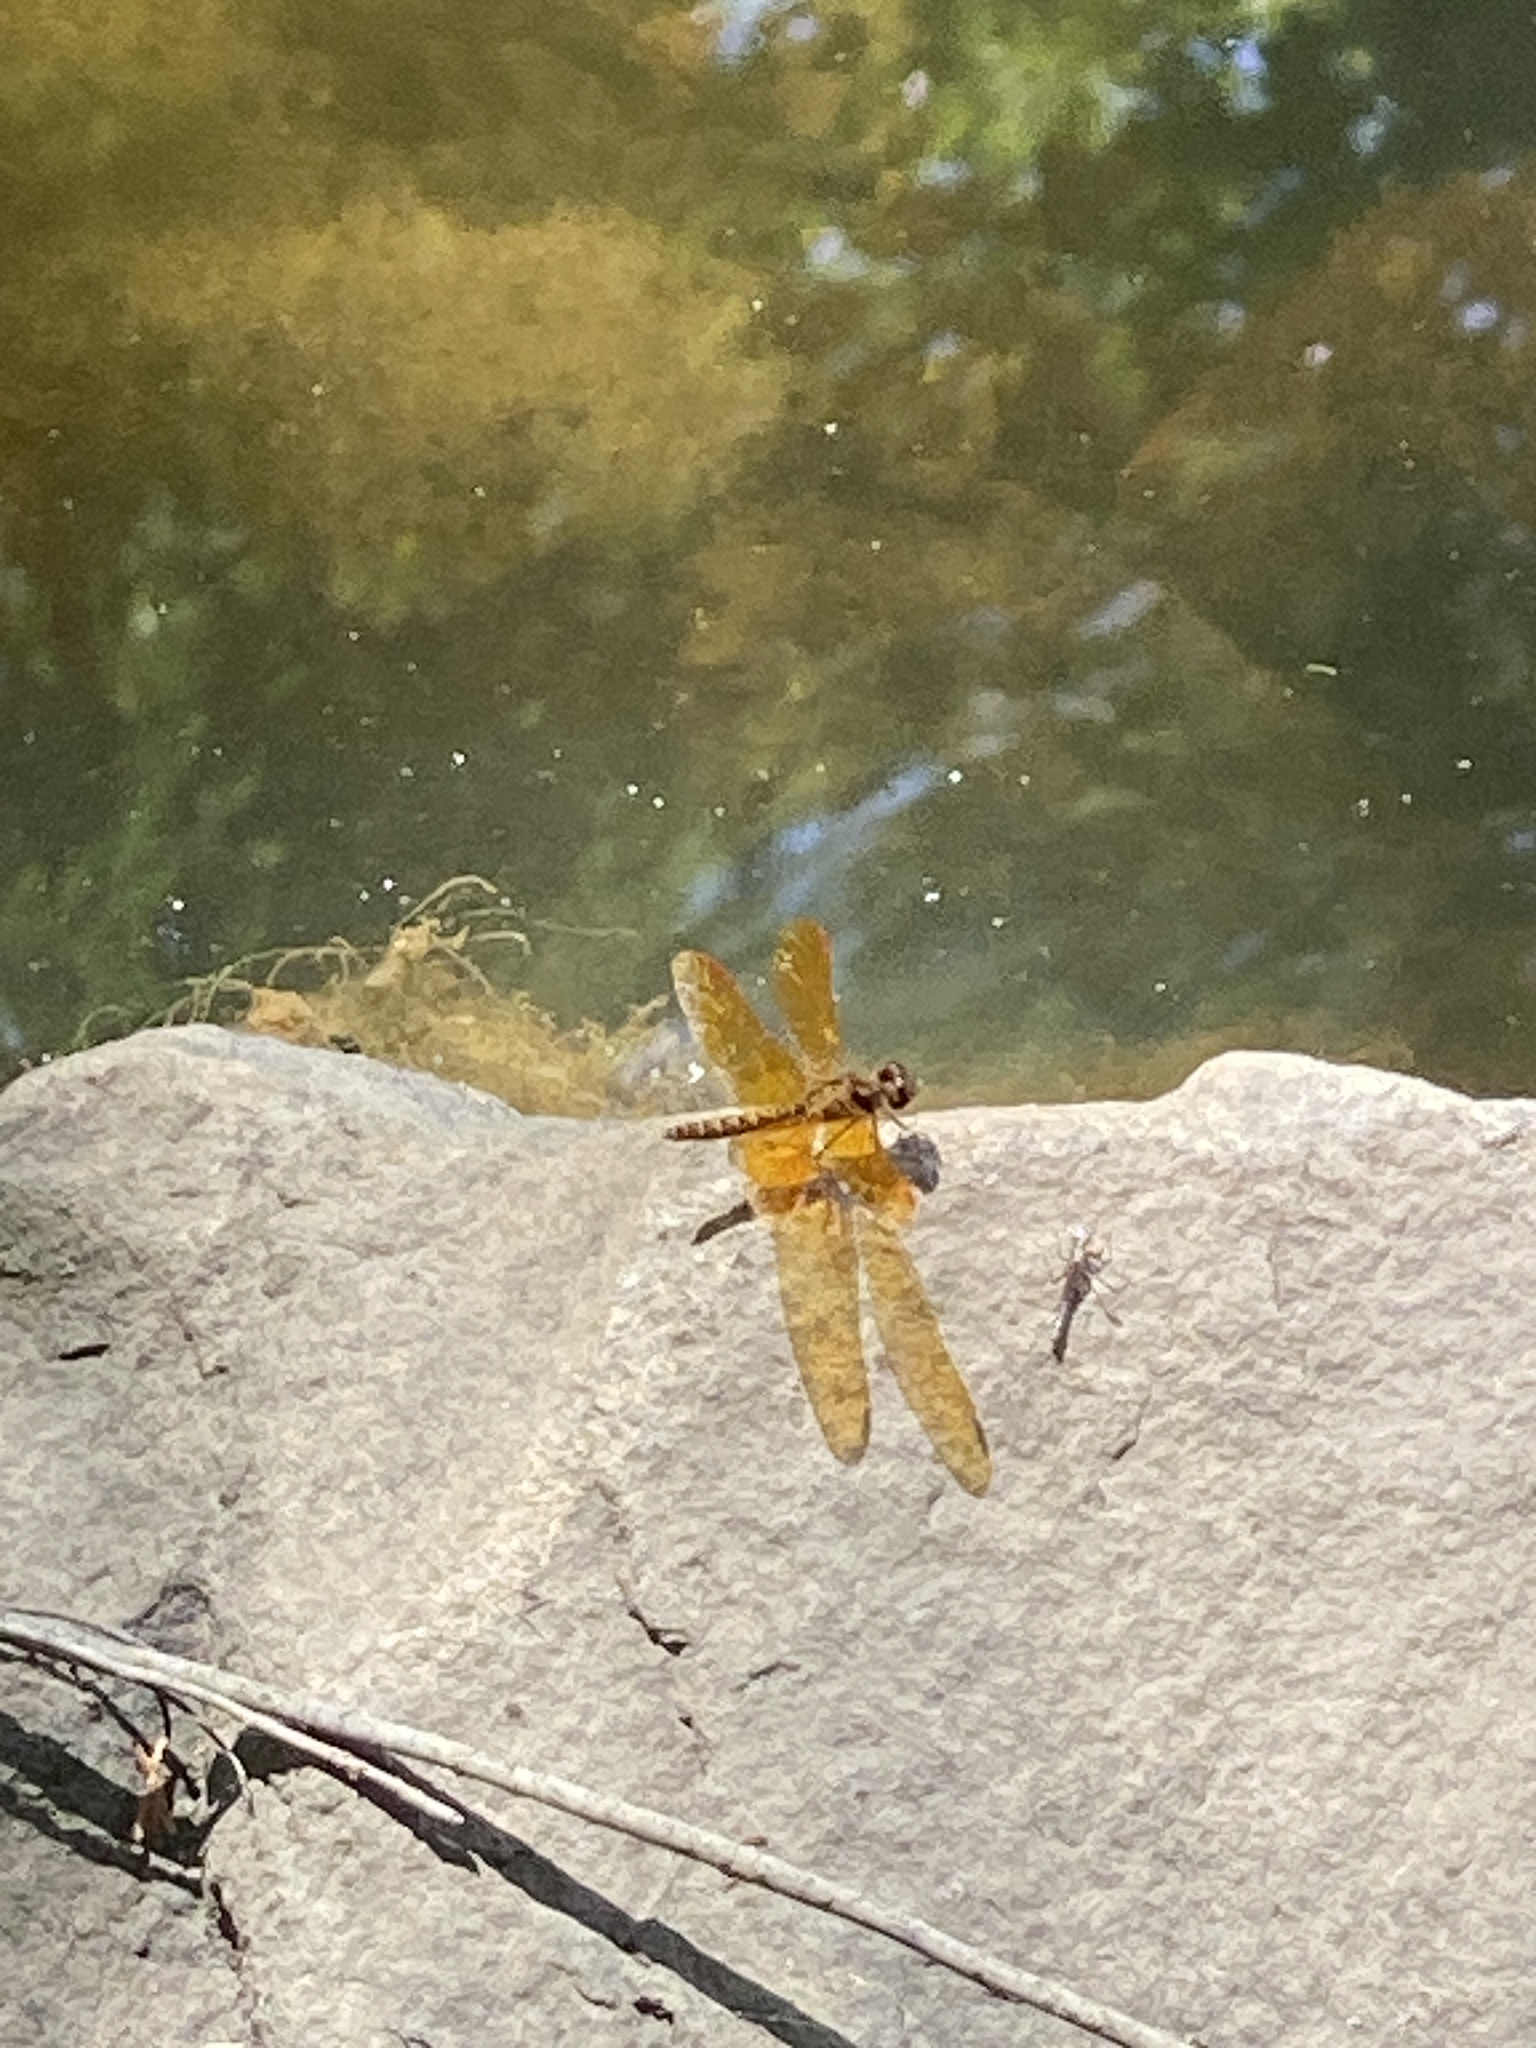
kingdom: Animalia
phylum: Arthropoda
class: Insecta
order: Odonata
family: Libellulidae
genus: Perithemis
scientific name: Perithemis tenera
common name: Eastern amberwing
